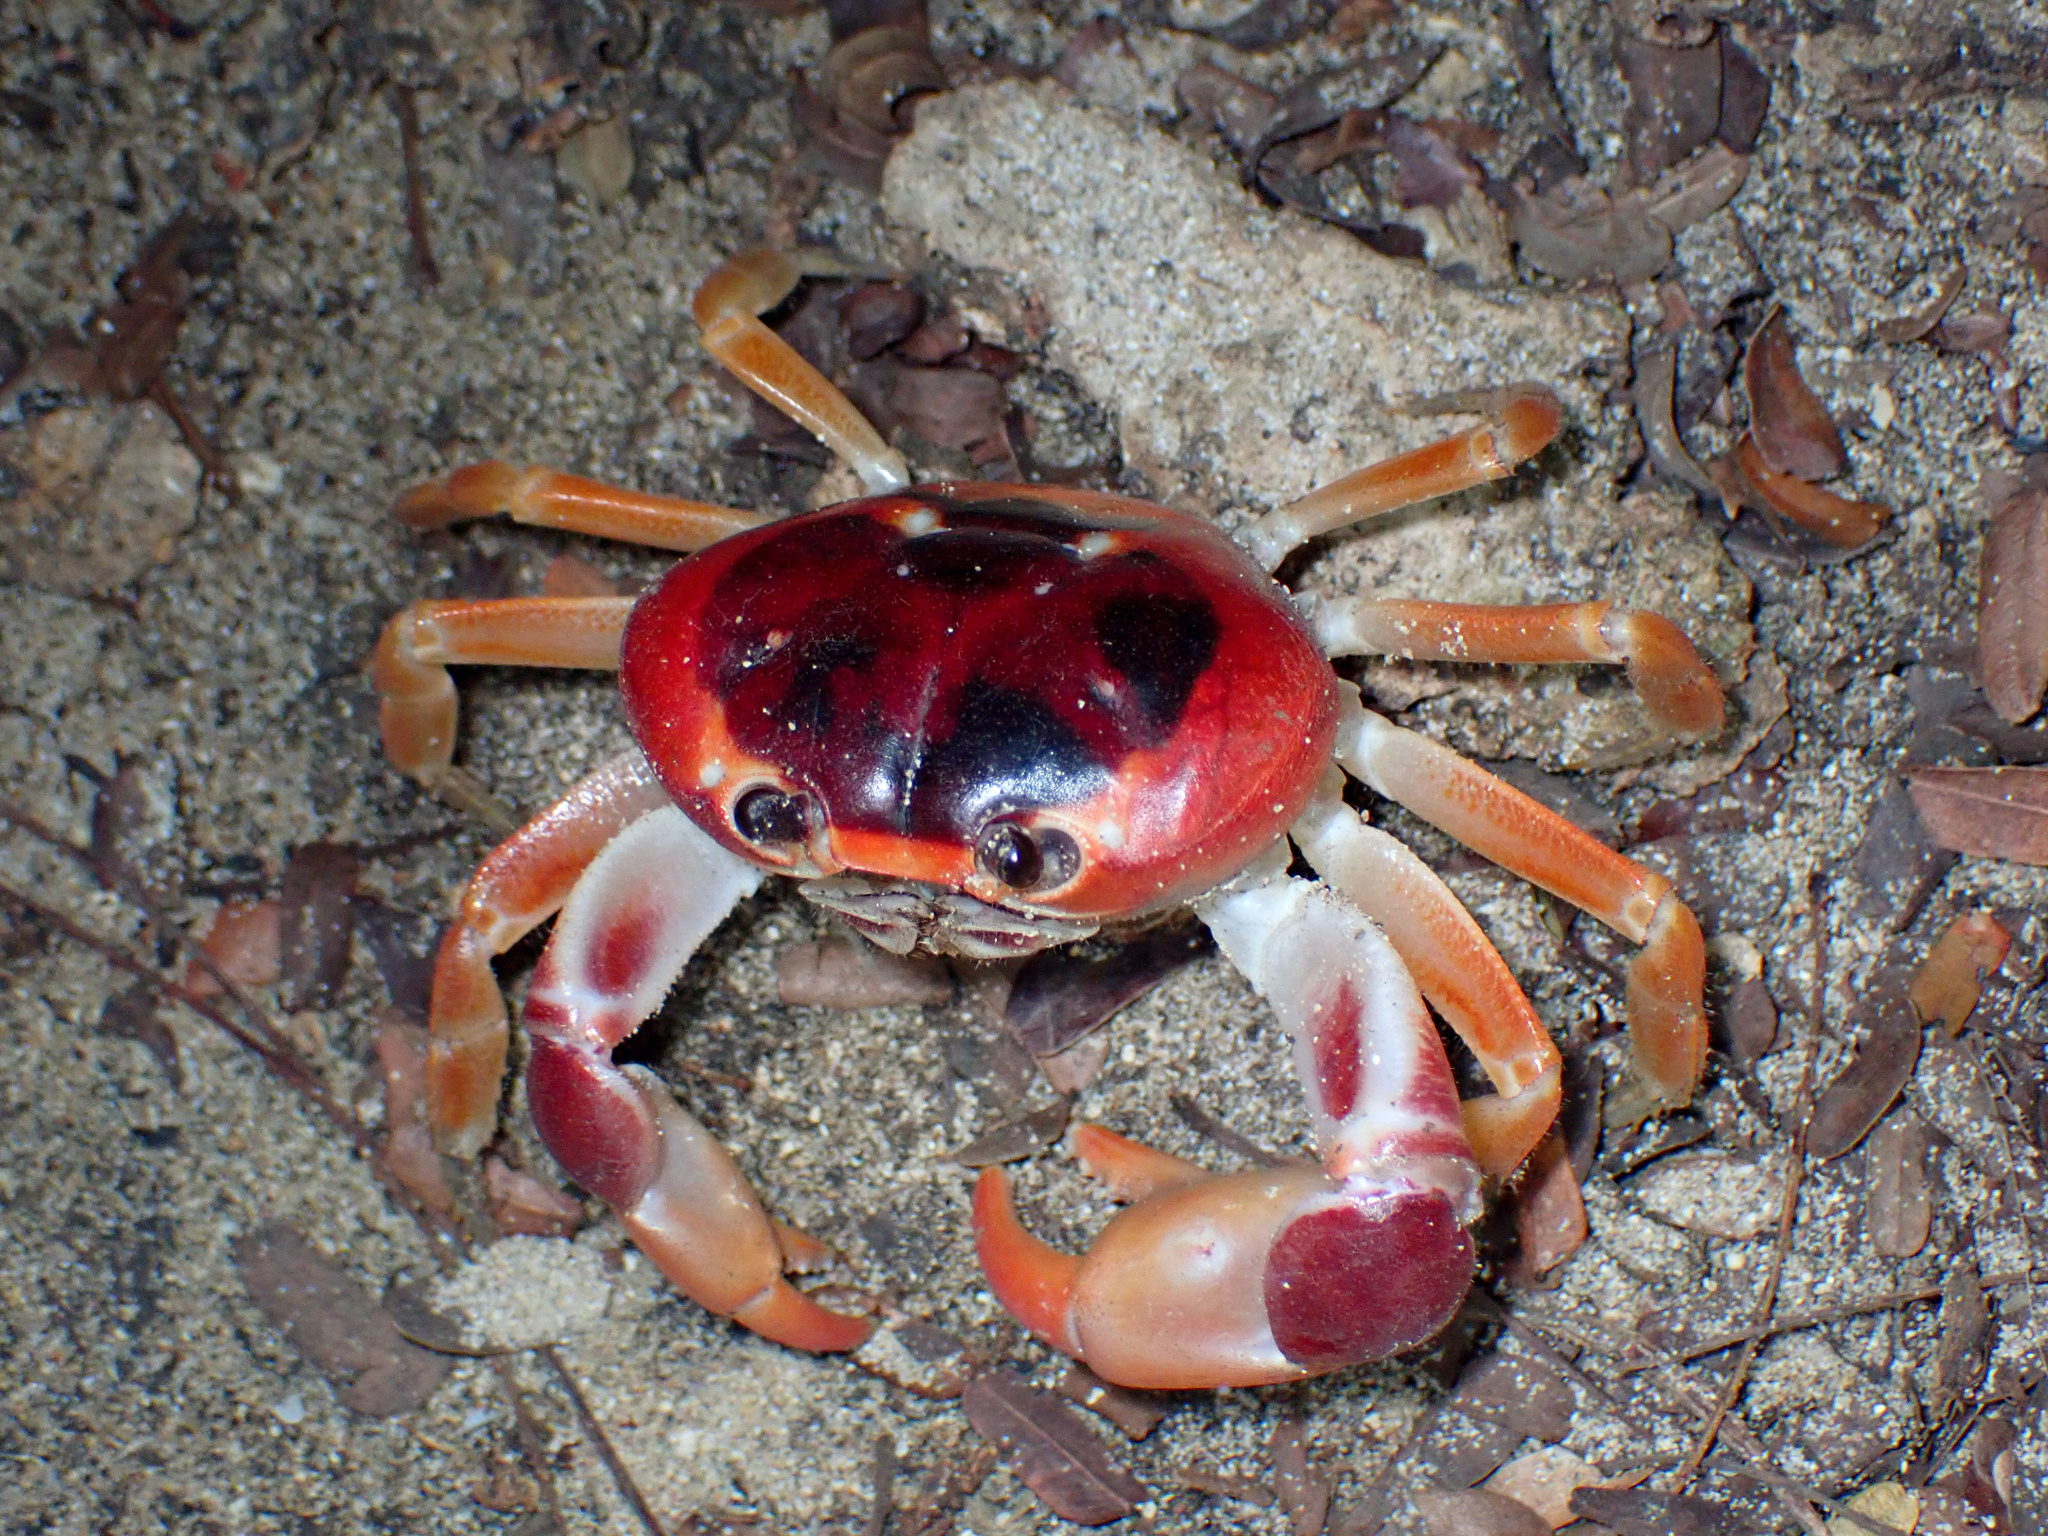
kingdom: Animalia
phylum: Arthropoda
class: Malacostraca
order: Decapoda
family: Gecarcinidae
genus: Gecarcinus
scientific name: Gecarcinus lateralis
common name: Bermuda land crab
